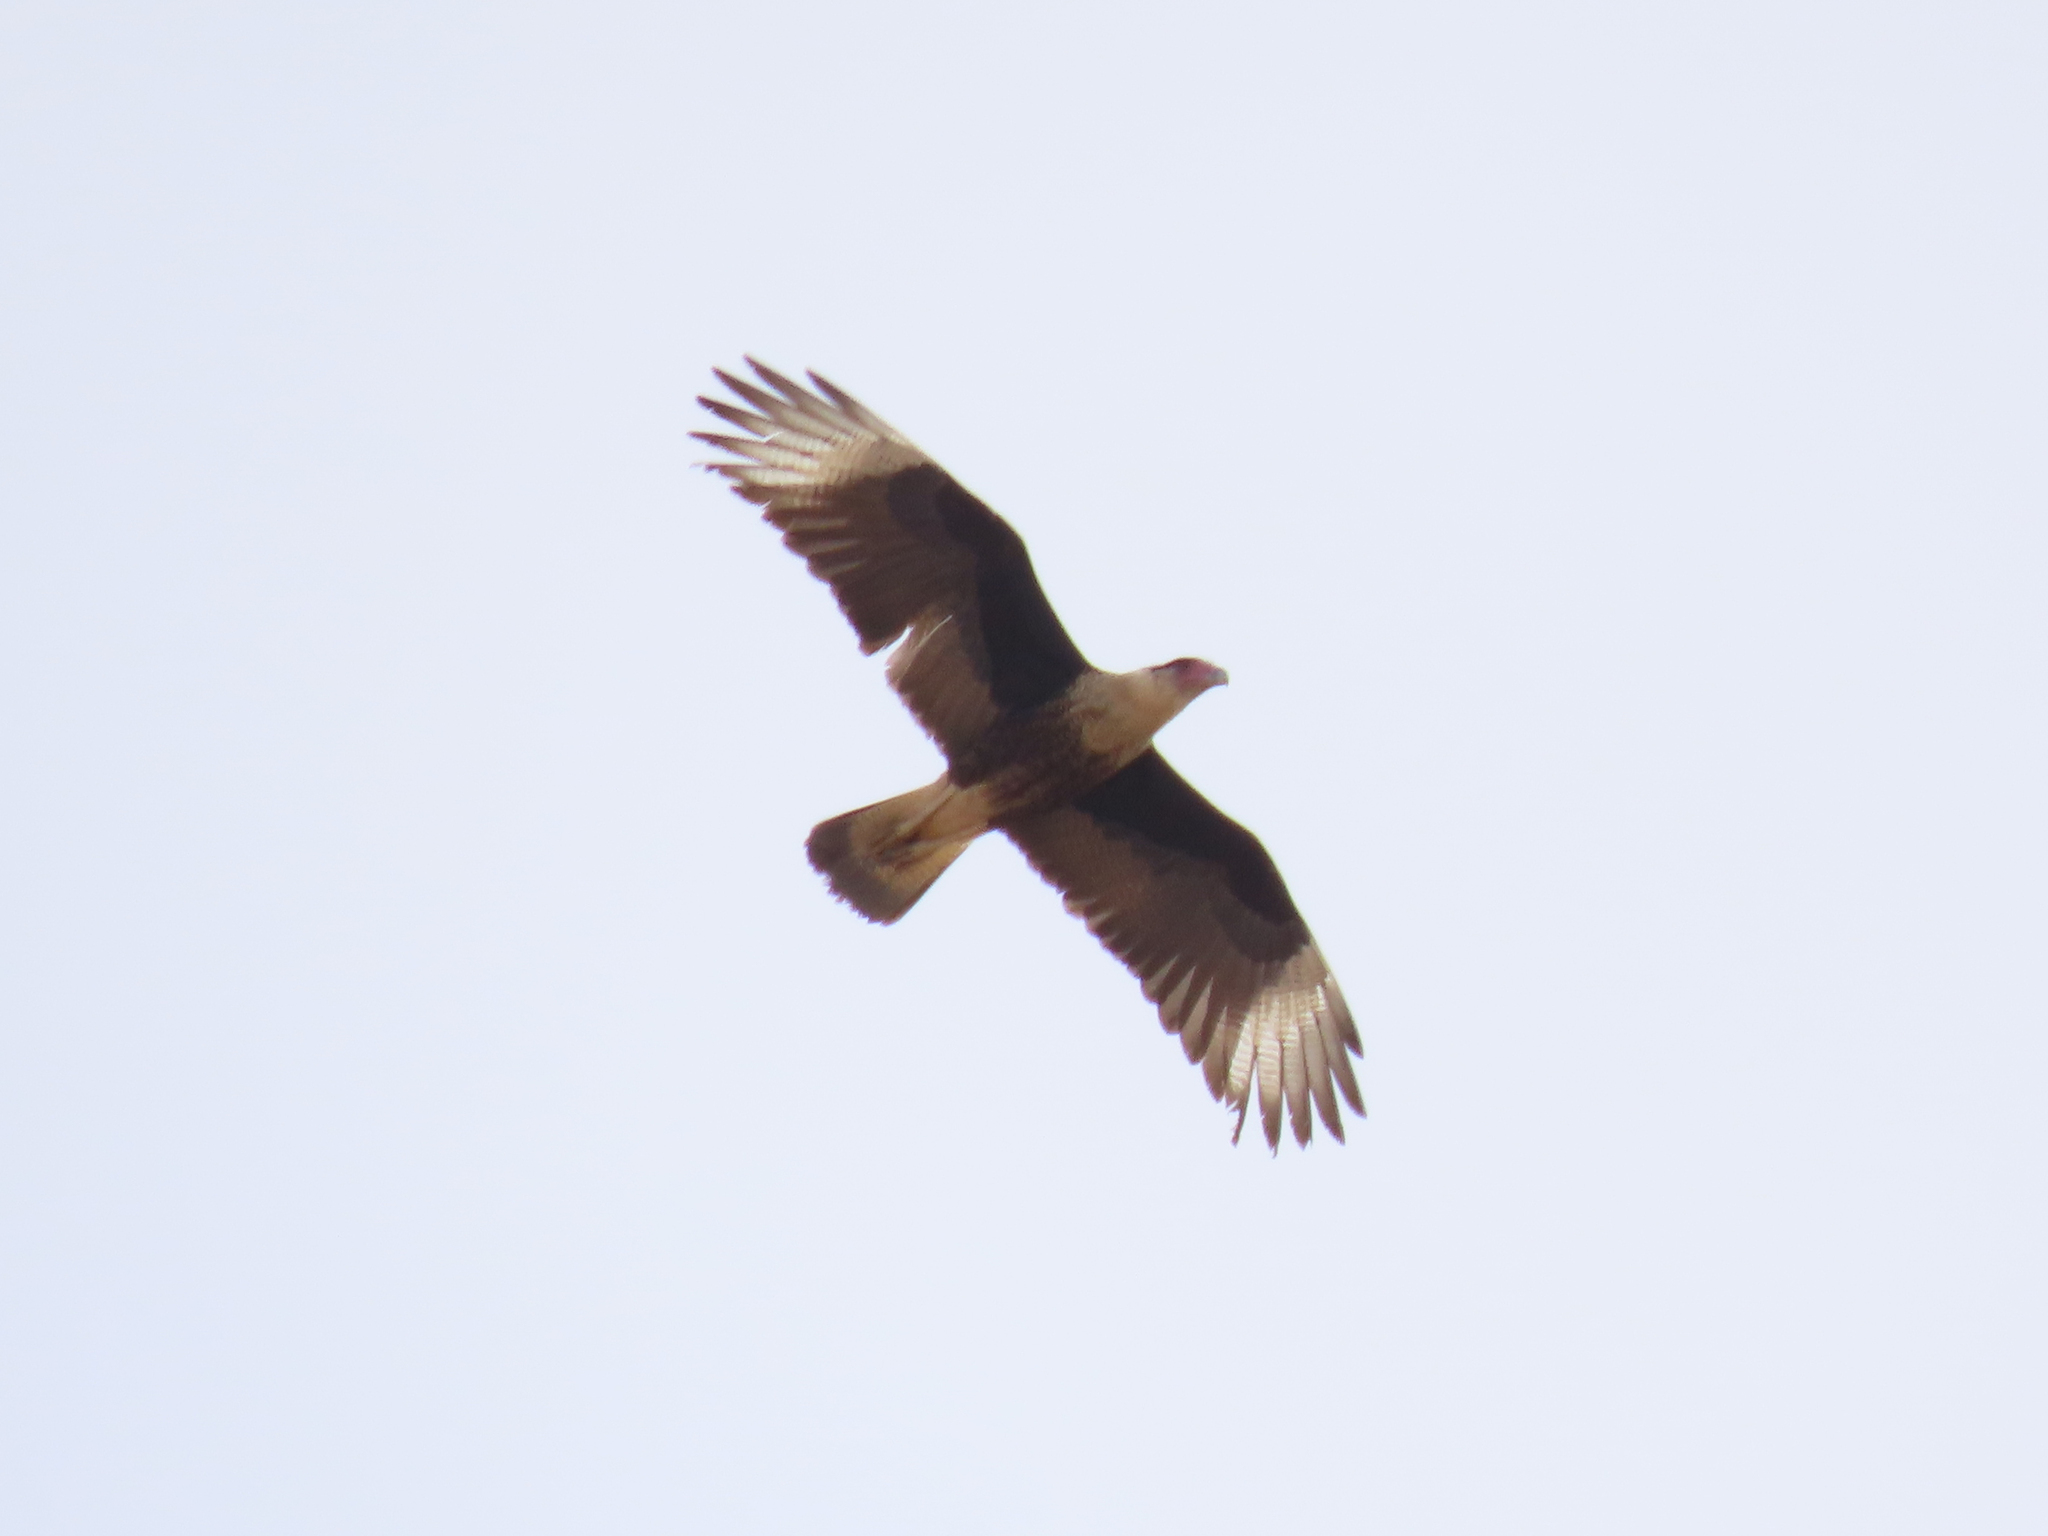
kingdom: Animalia
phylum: Chordata
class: Aves
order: Falconiformes
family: Falconidae
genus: Caracara
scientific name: Caracara plancus
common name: Southern caracara
